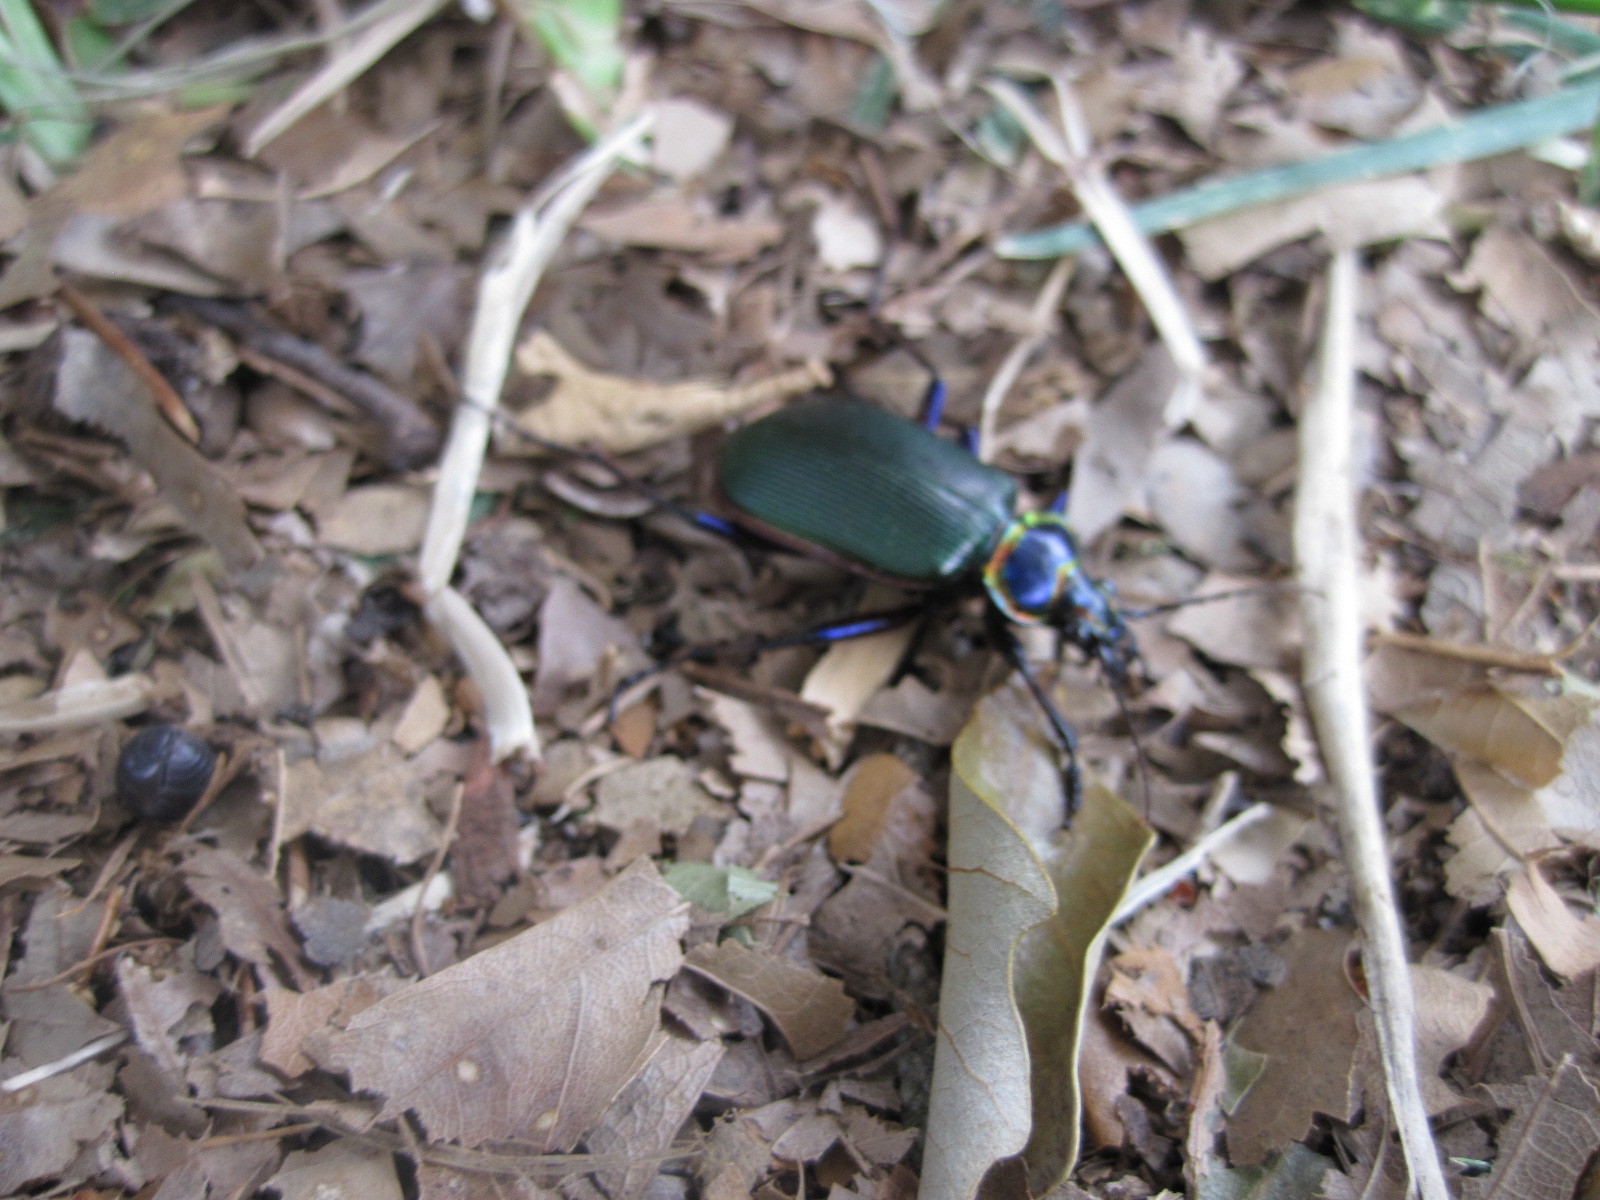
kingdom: Animalia
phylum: Arthropoda
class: Insecta
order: Coleoptera
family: Carabidae
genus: Calosoma
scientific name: Calosoma scrutator
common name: Fiery searcher beetle
